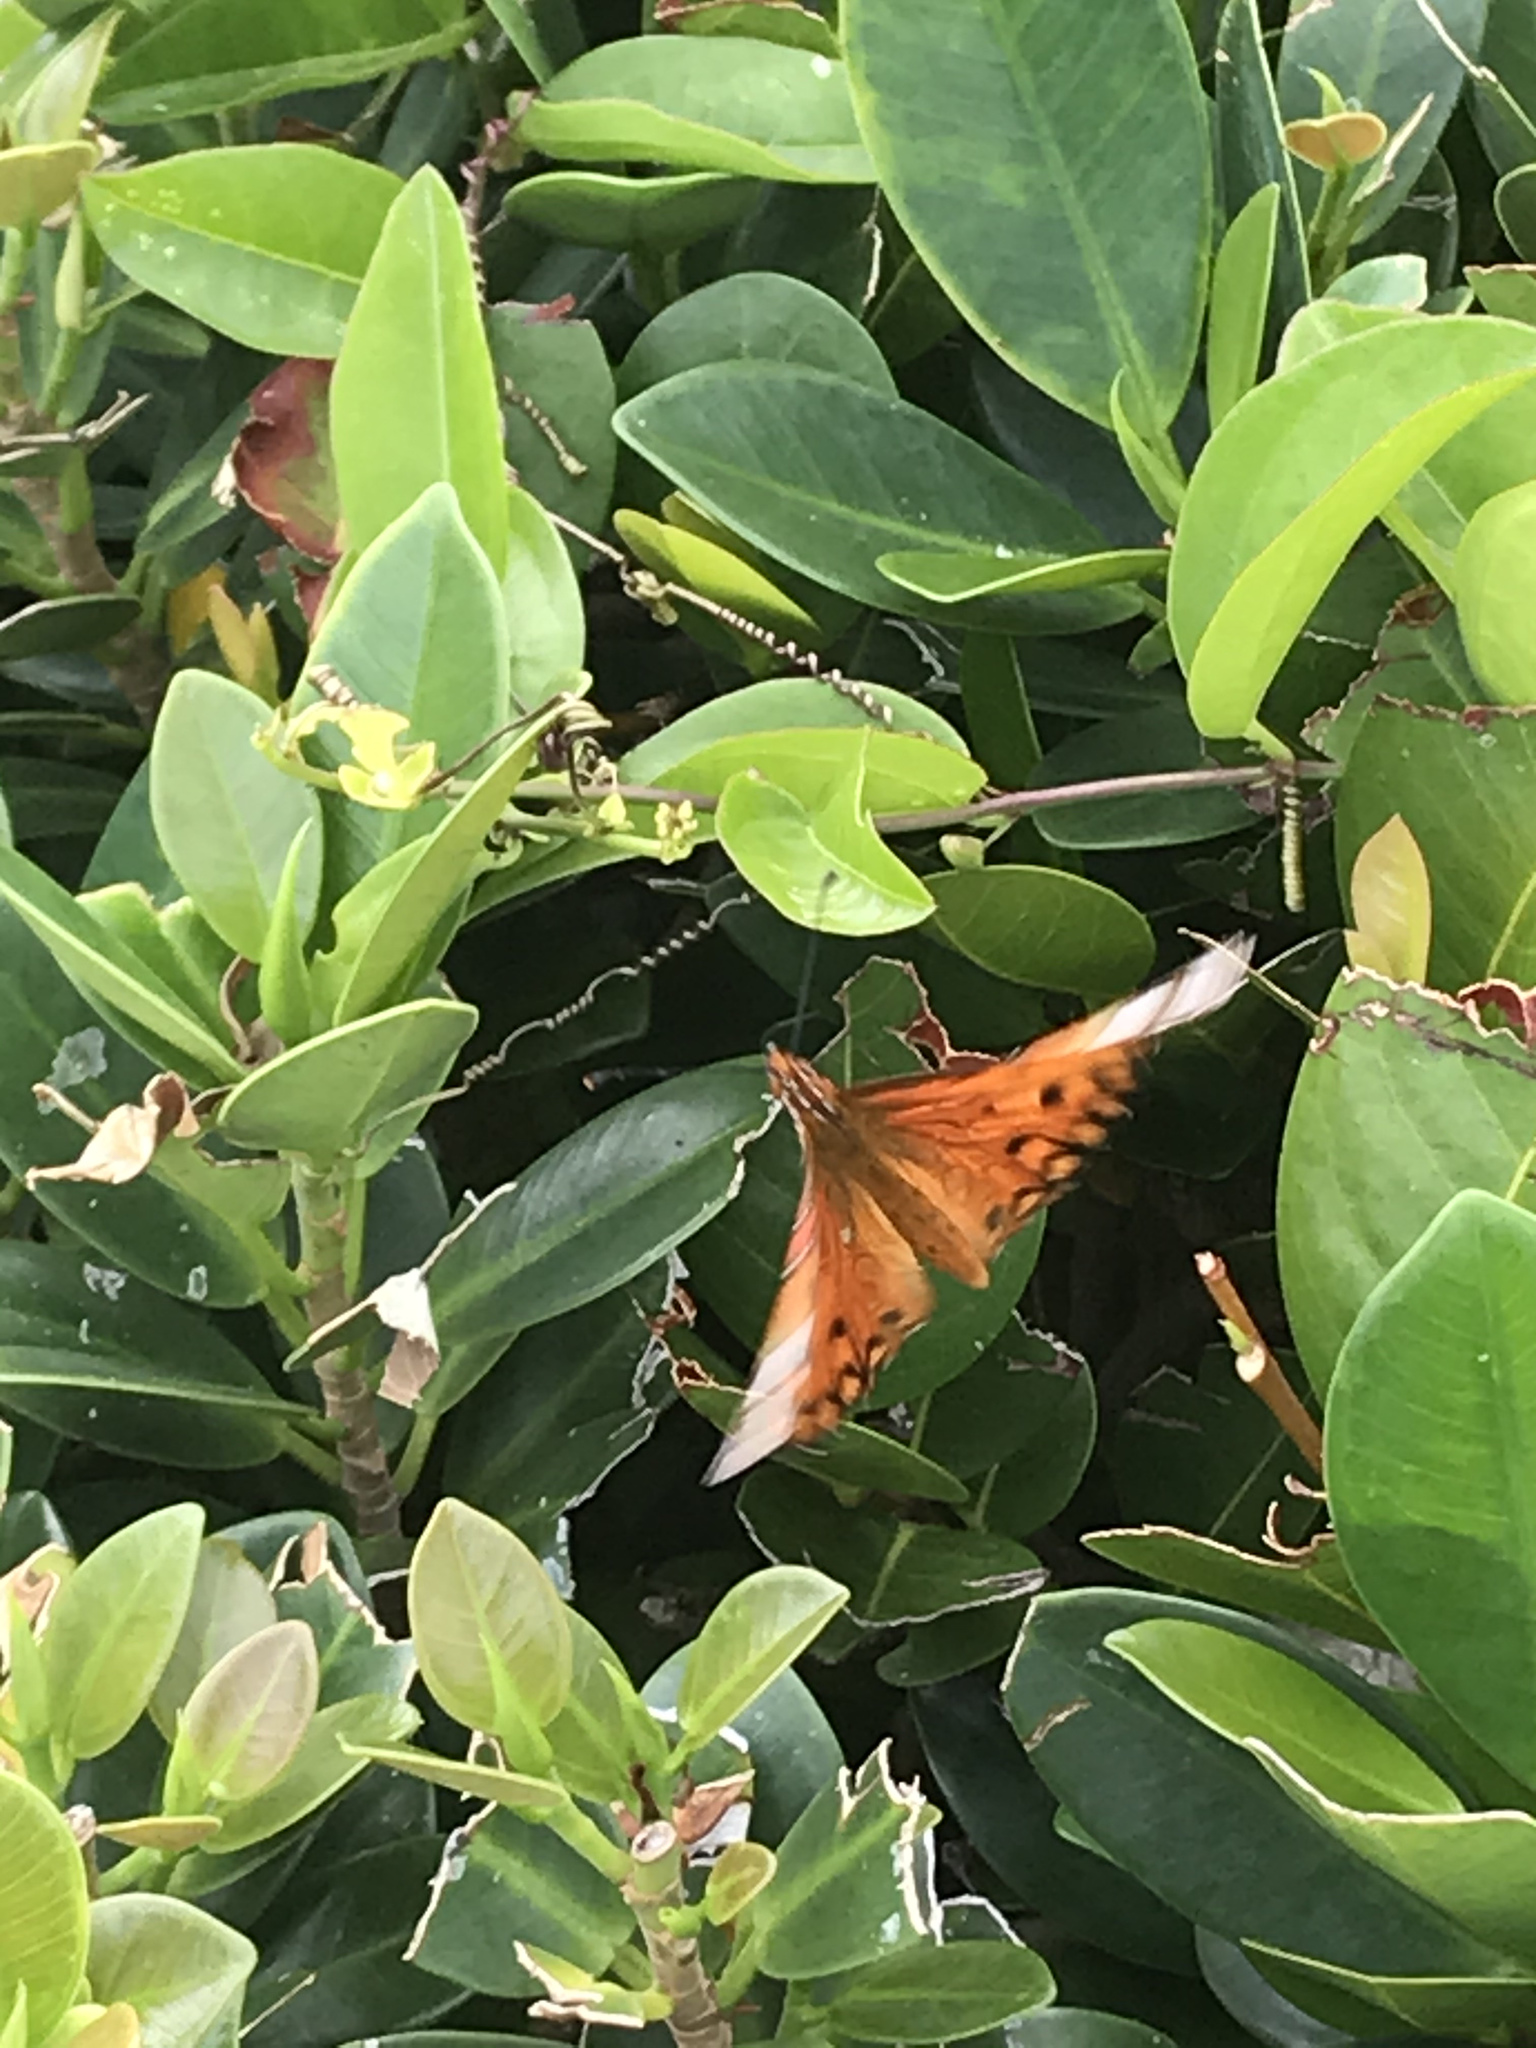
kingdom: Animalia
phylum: Arthropoda
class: Insecta
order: Lepidoptera
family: Nymphalidae
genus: Dione
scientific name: Dione vanillae
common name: Gulf fritillary
